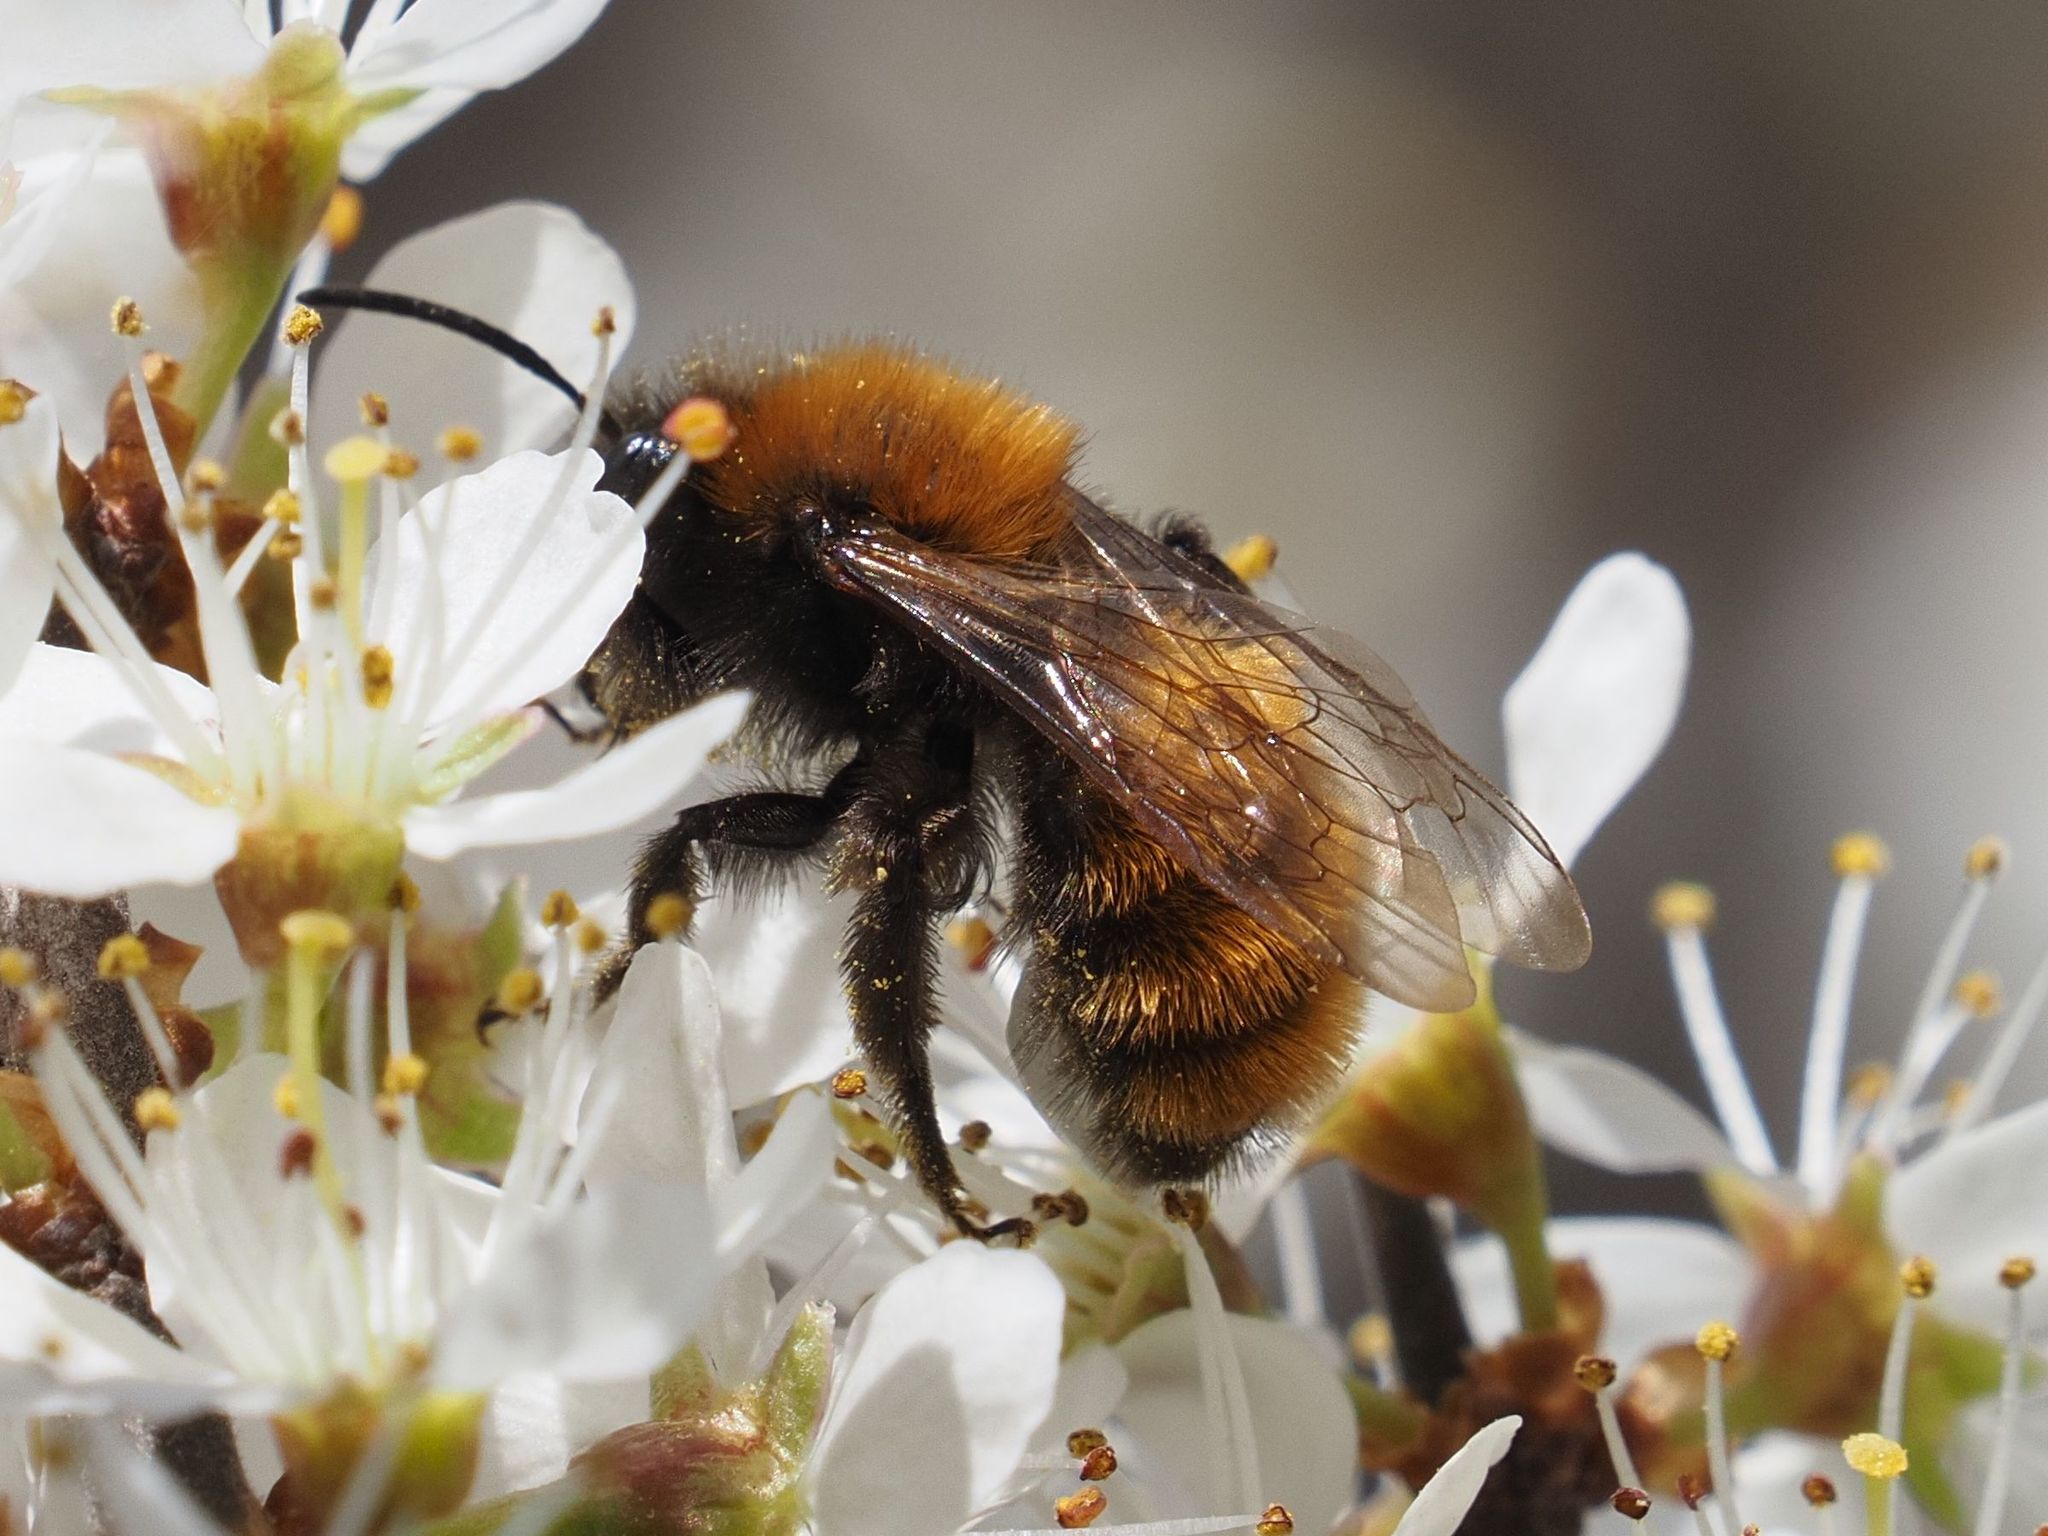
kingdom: Animalia
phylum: Arthropoda
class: Insecta
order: Hymenoptera
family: Andrenidae
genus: Andrena
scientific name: Andrena fulva
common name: Tawny mining bee
